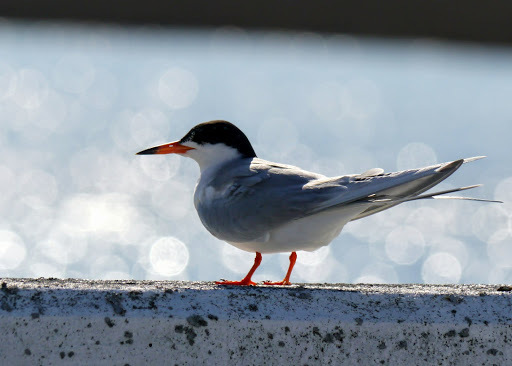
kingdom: Animalia
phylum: Chordata
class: Aves
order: Charadriiformes
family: Laridae
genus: Sterna
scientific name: Sterna forsteri
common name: Forster's tern
